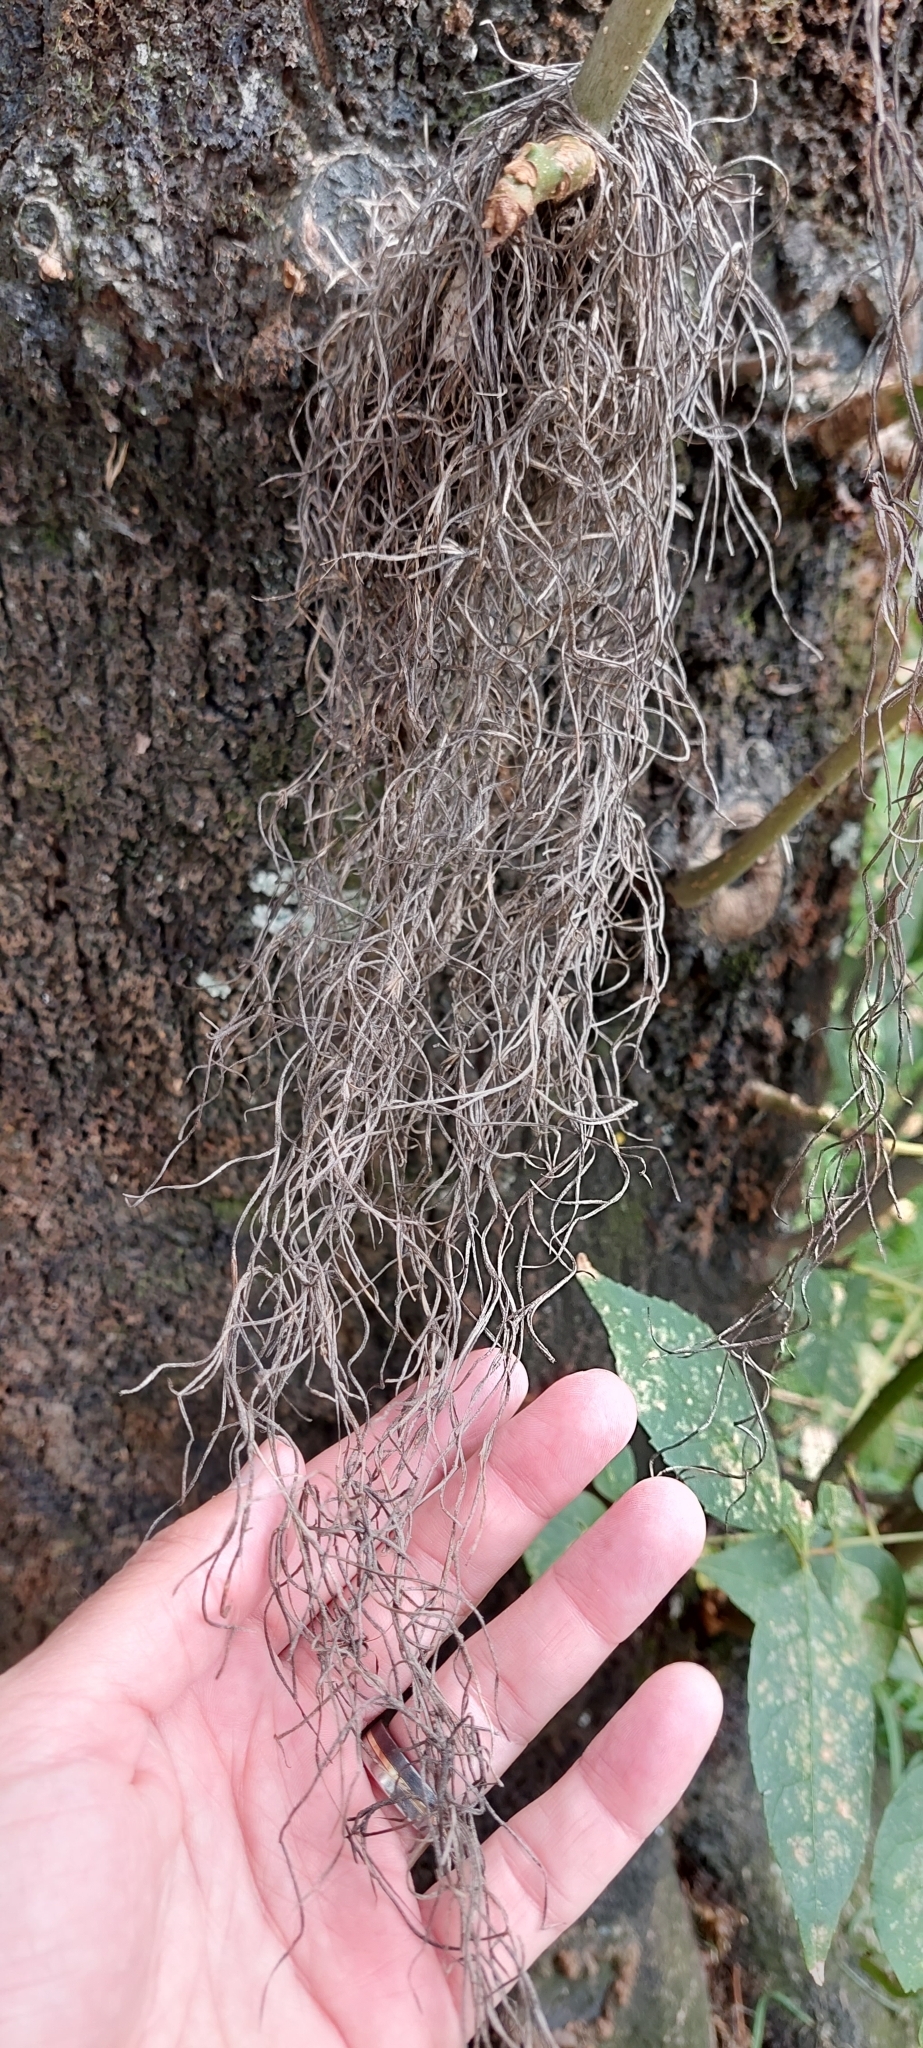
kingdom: Plantae
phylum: Tracheophyta
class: Liliopsida
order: Poales
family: Bromeliaceae
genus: Tillandsia
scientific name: Tillandsia usneoides
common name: Spanish moss
